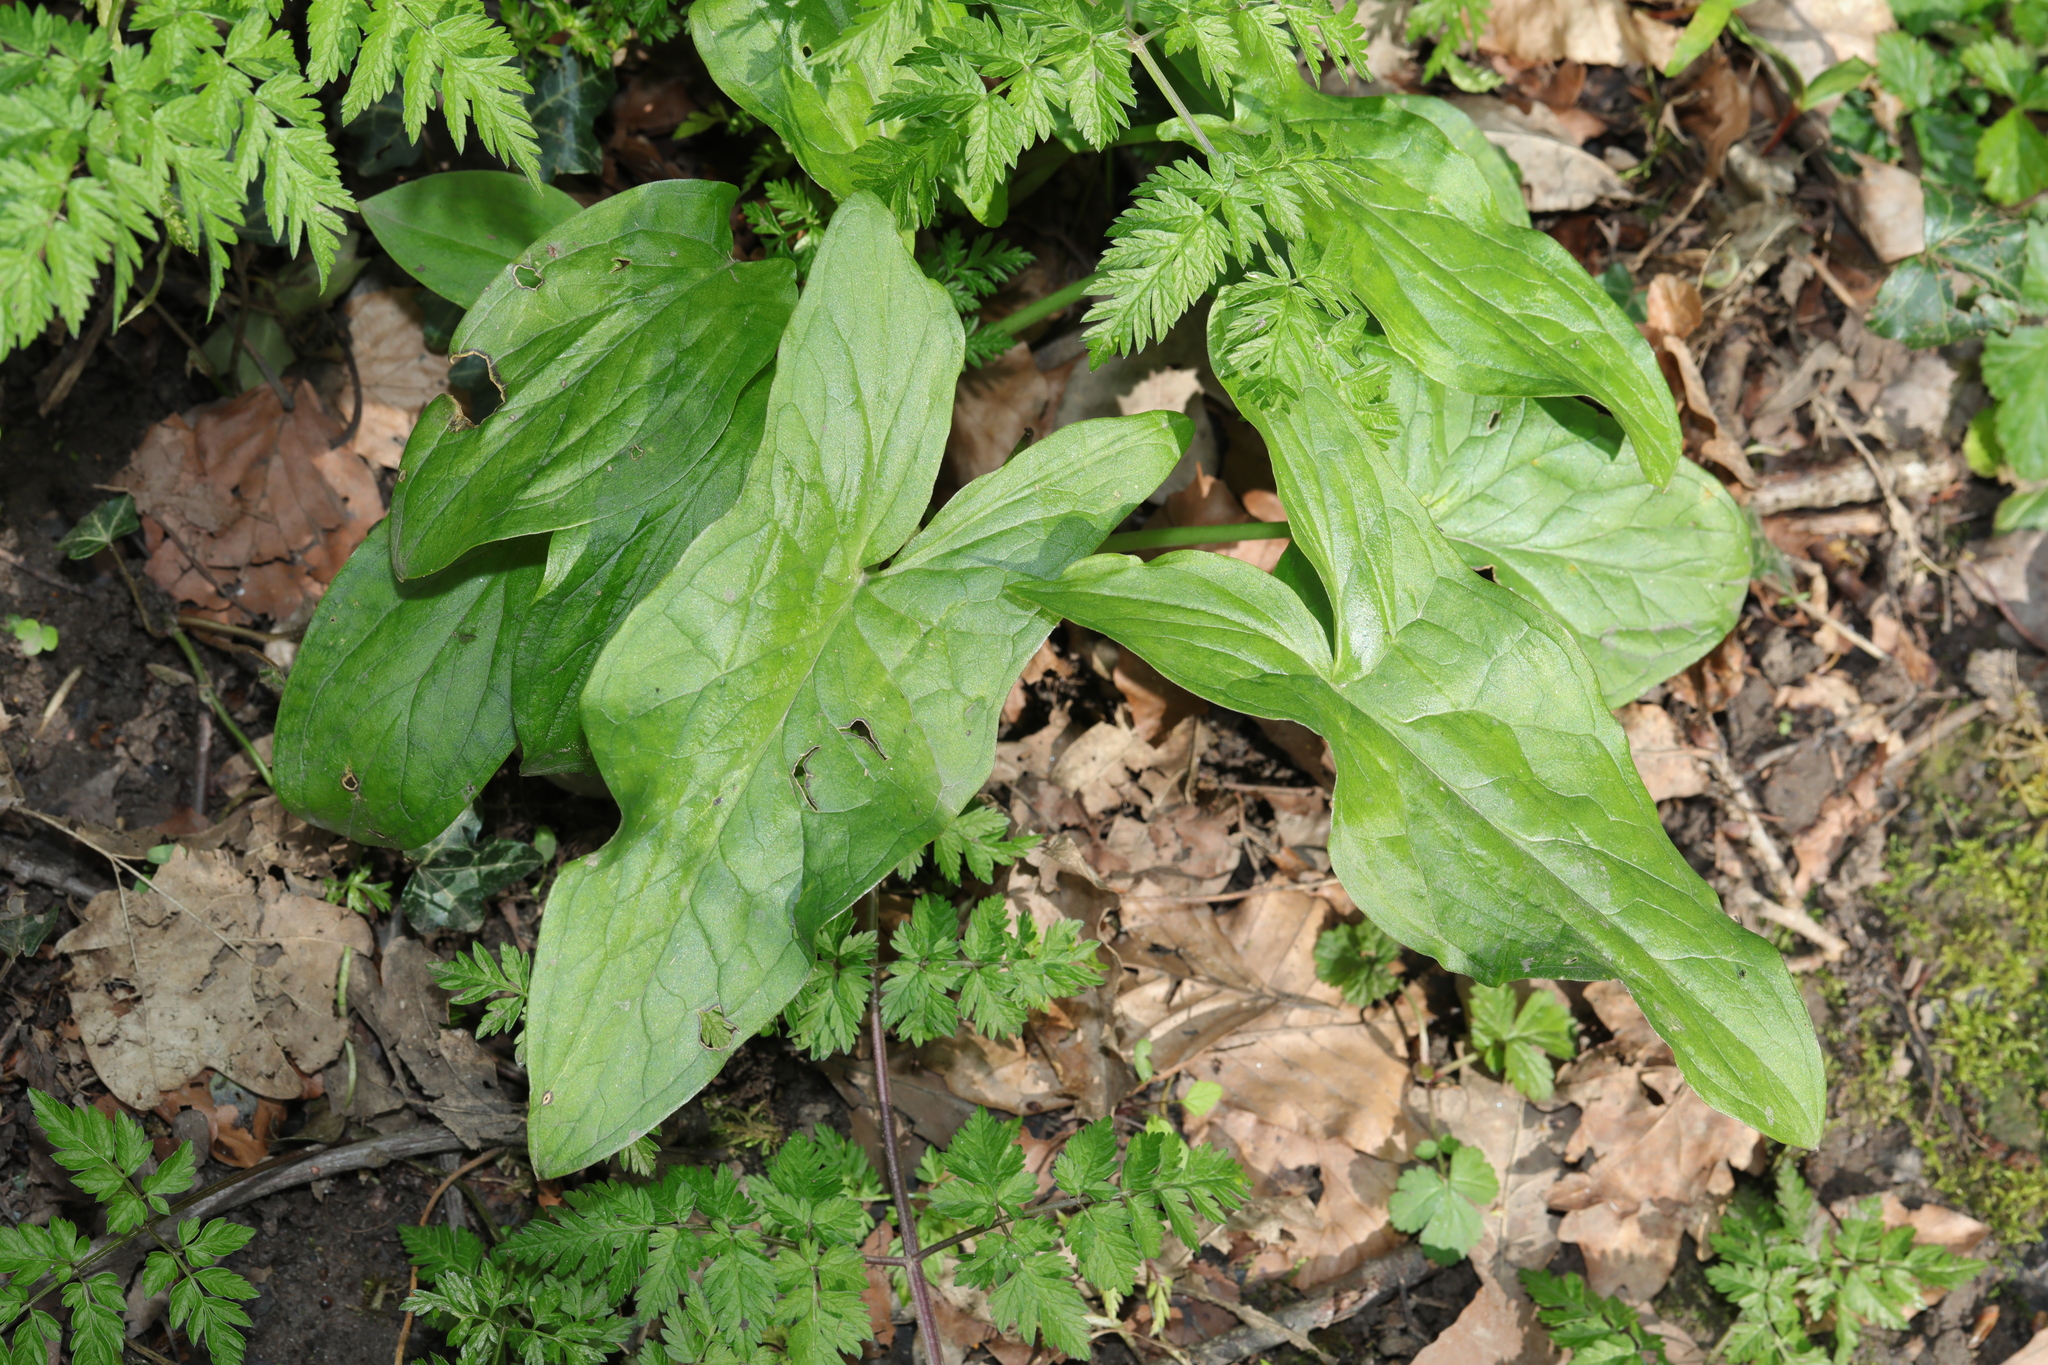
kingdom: Plantae
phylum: Tracheophyta
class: Liliopsida
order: Alismatales
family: Araceae
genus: Arum
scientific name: Arum maculatum
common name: Lords-and-ladies
